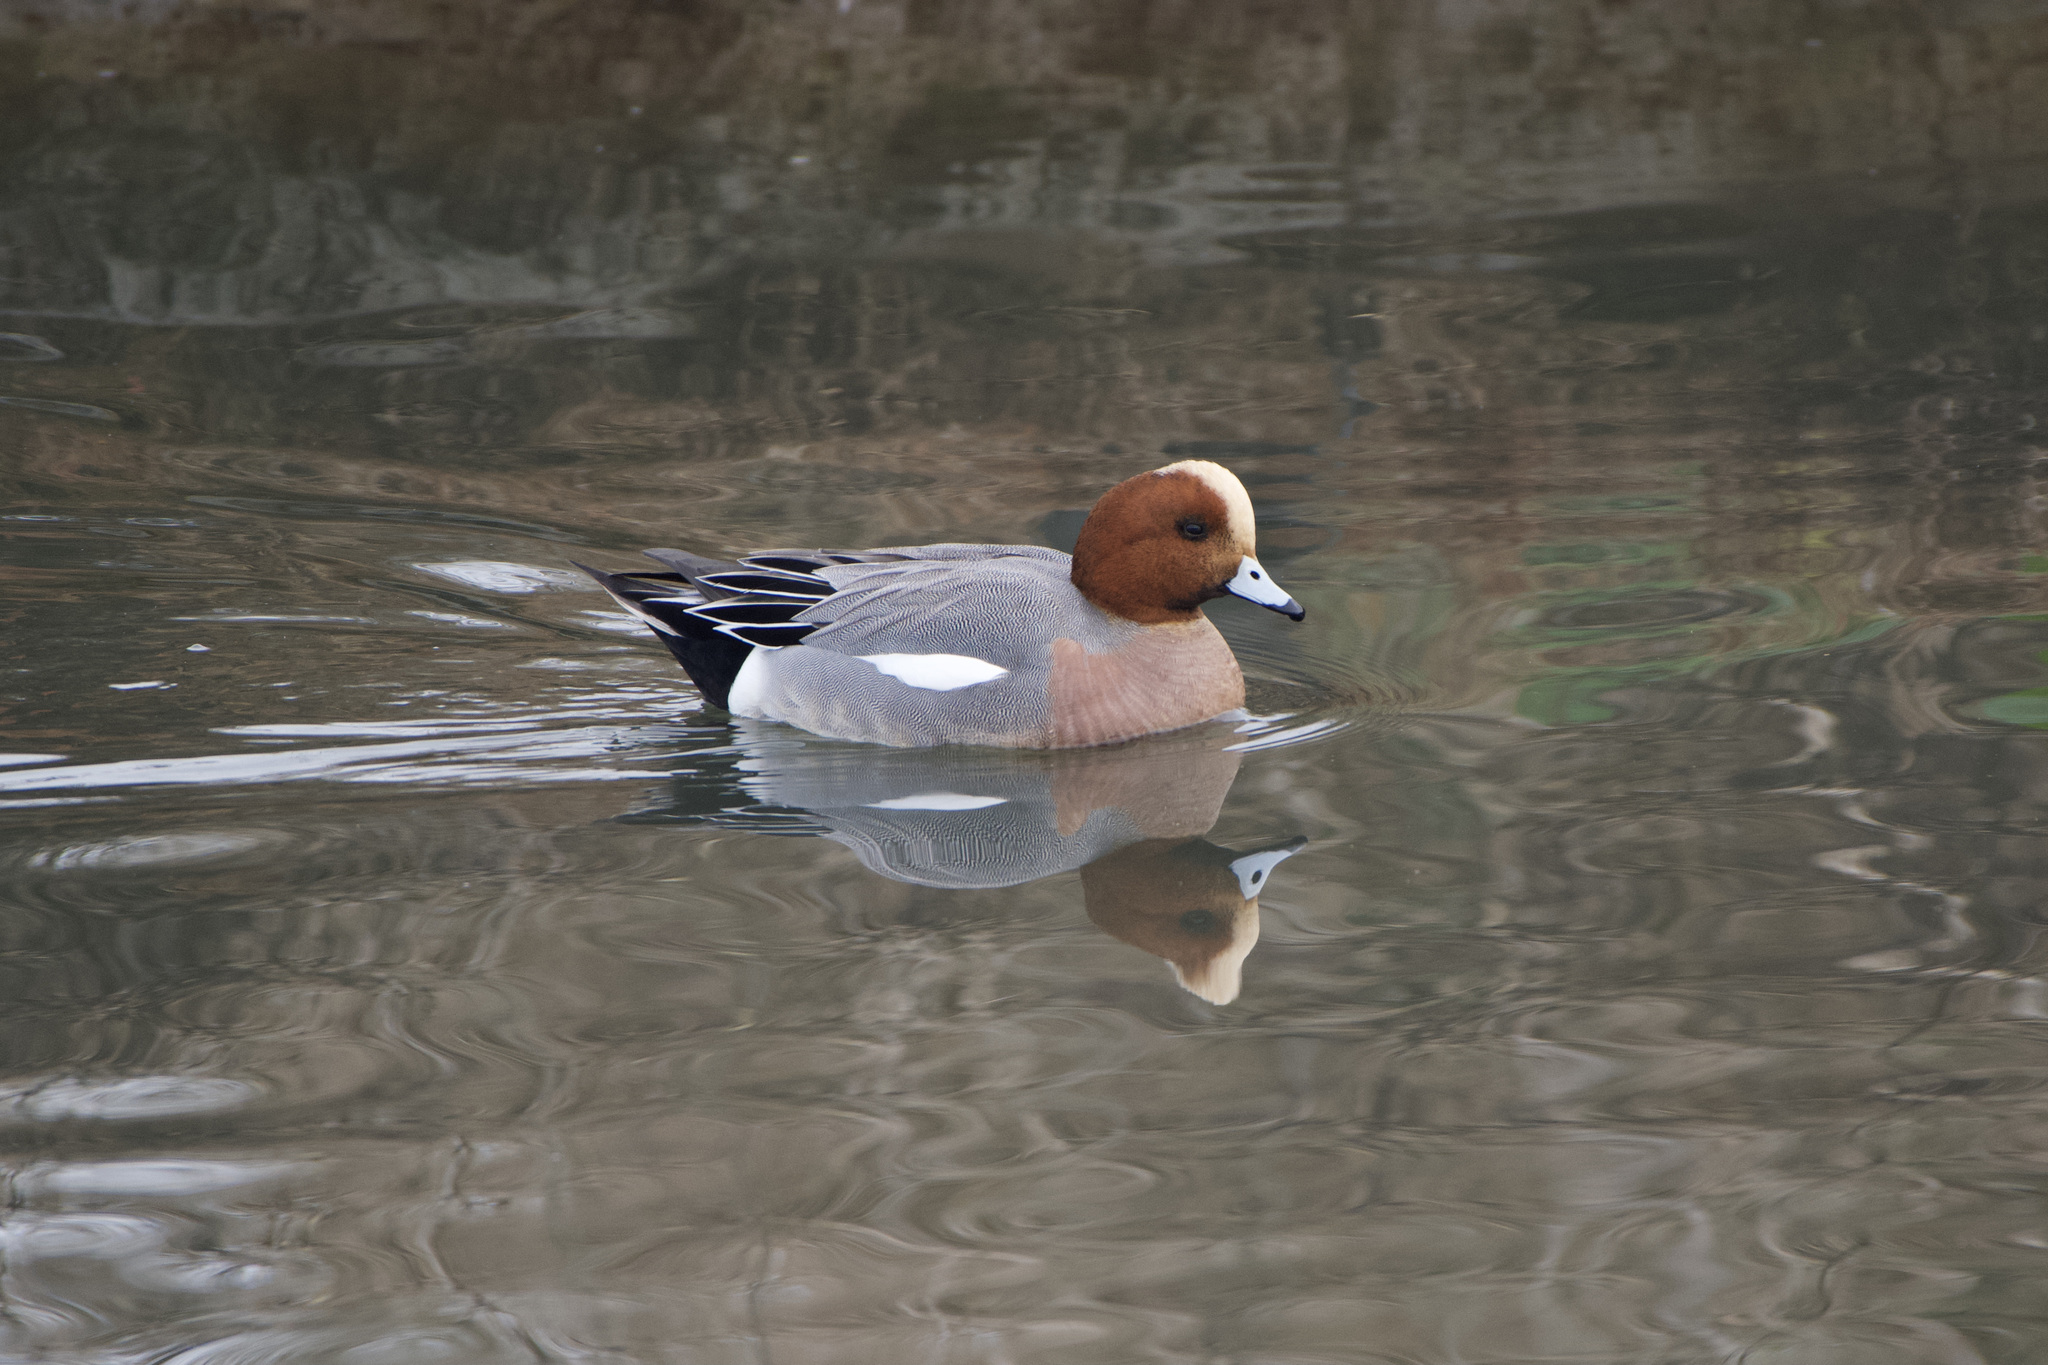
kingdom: Animalia
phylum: Chordata
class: Aves
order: Anseriformes
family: Anatidae
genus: Mareca
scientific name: Mareca penelope
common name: Eurasian wigeon
